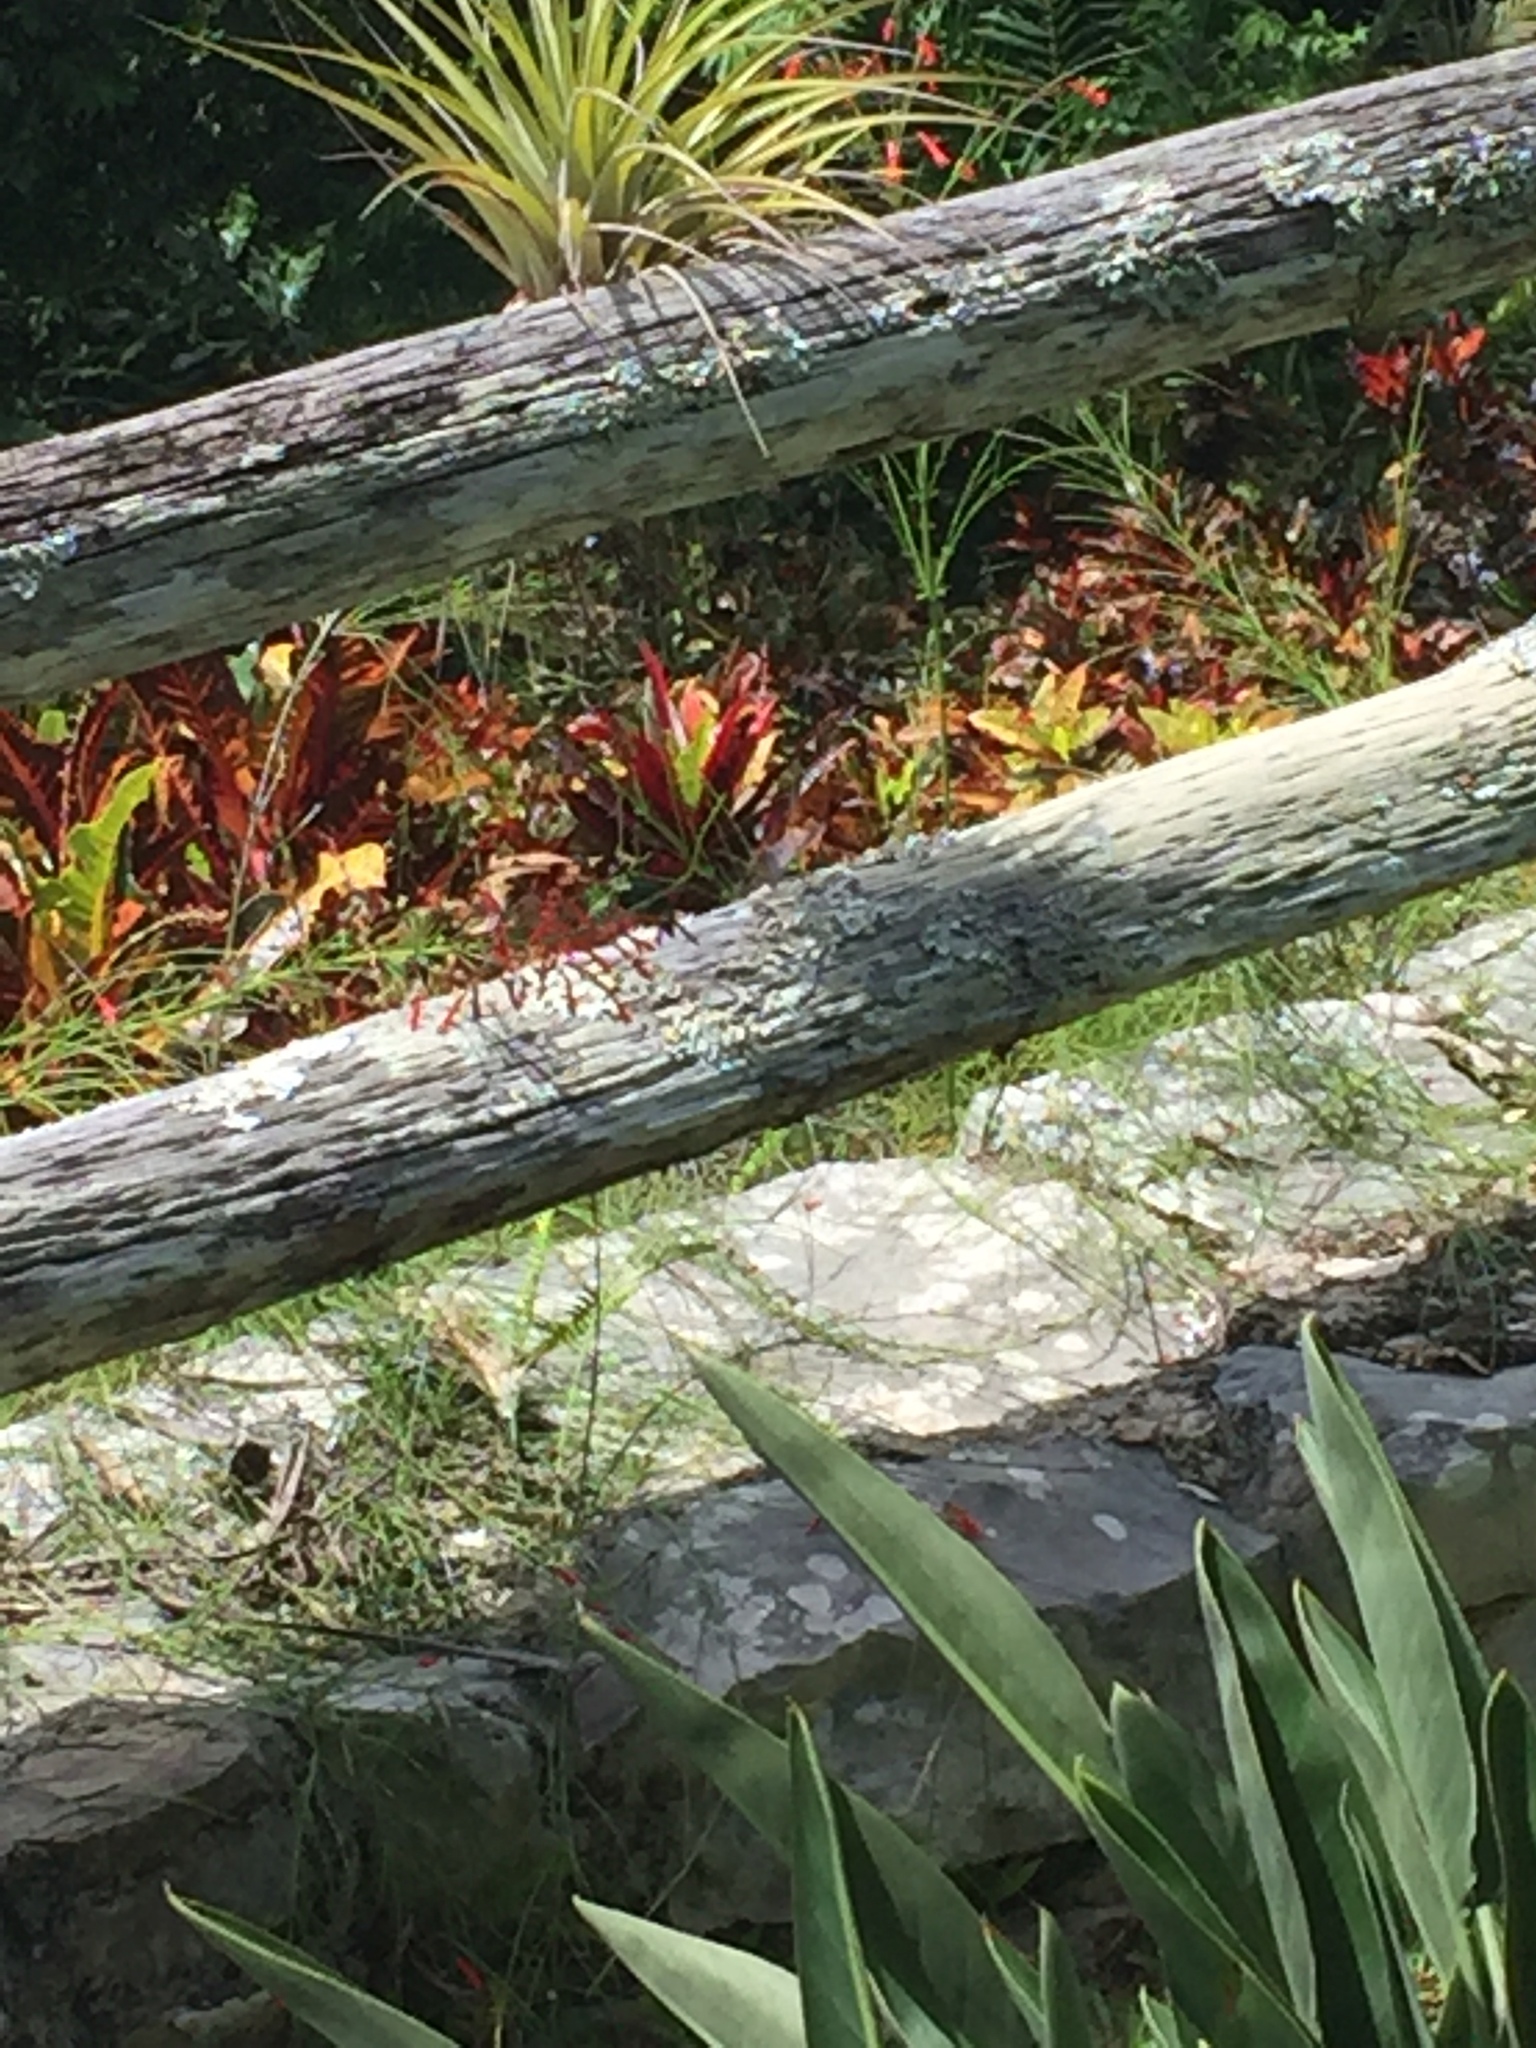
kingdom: Animalia
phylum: Chordata
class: Aves
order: Apodiformes
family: Trochilidae
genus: Riccordia
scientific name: Riccordia ricordii
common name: Cuban emerald
